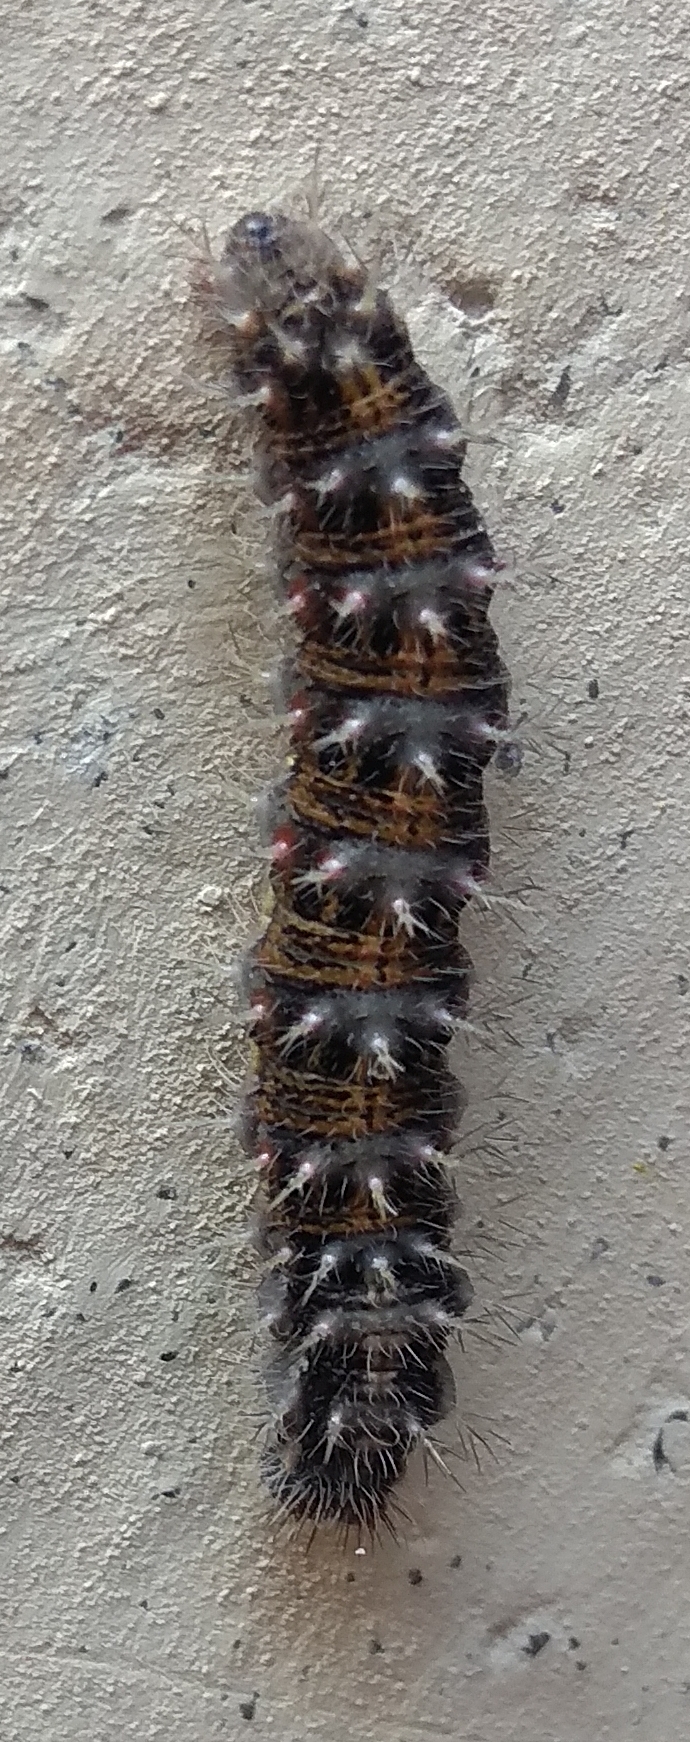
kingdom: Animalia
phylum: Arthropoda
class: Insecta
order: Lepidoptera
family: Nymphalidae
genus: Vanessa
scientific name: Vanessa cardui
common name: Painted lady
